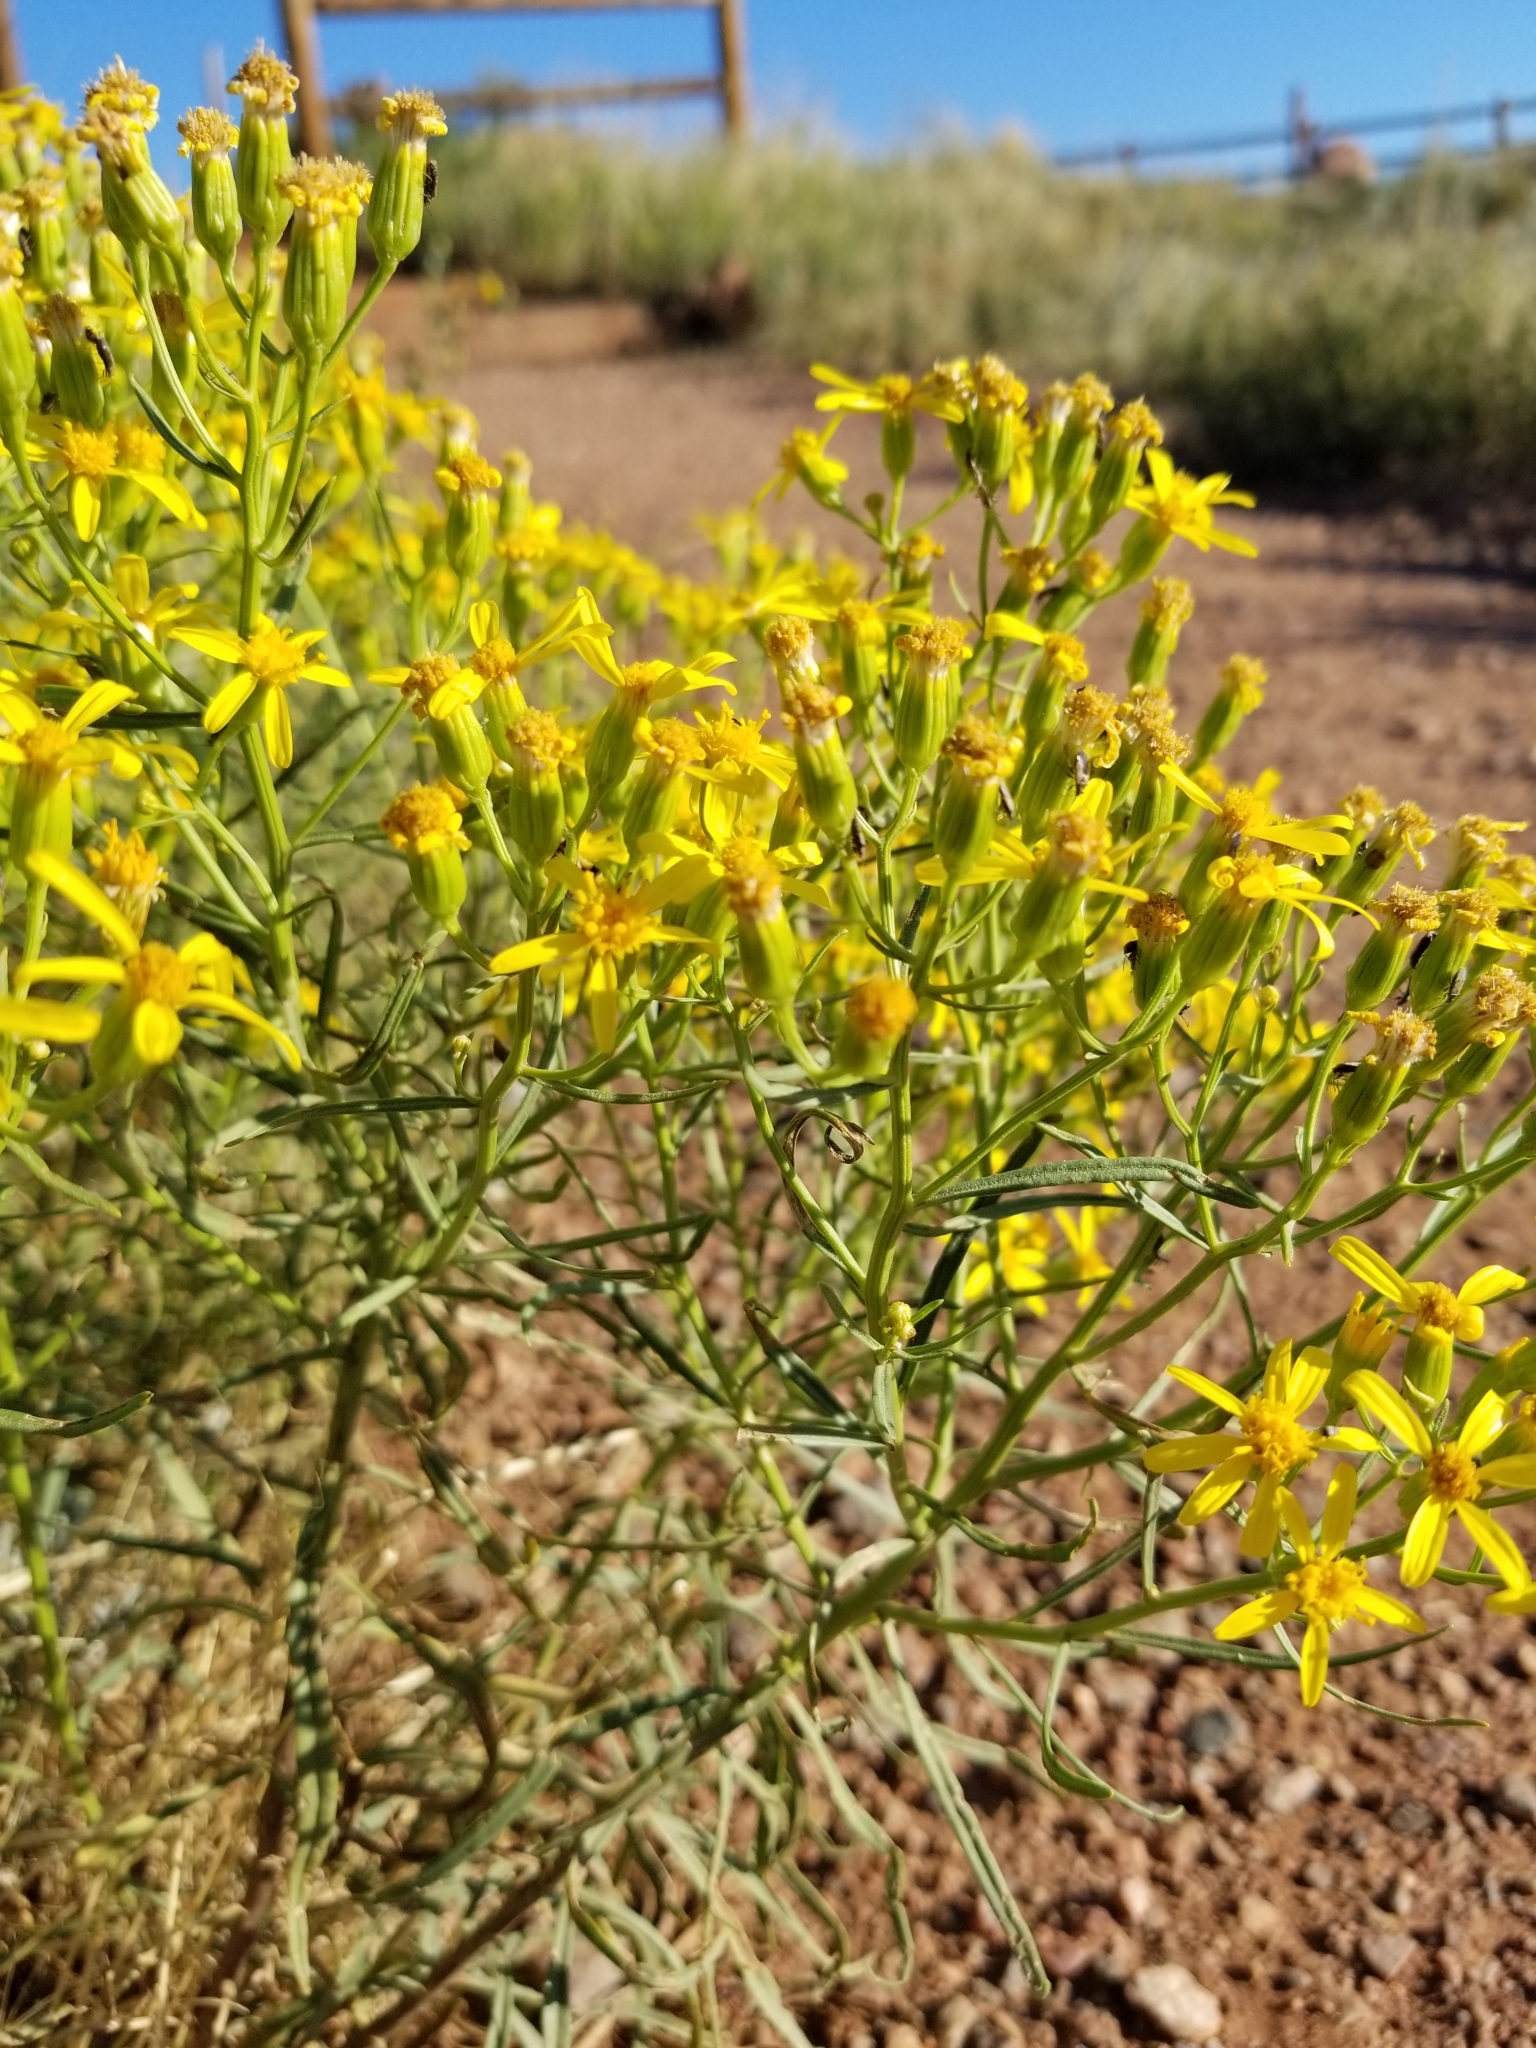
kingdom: Plantae
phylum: Tracheophyta
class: Magnoliopsida
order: Asterales
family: Asteraceae
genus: Senecio
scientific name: Senecio spartioides
